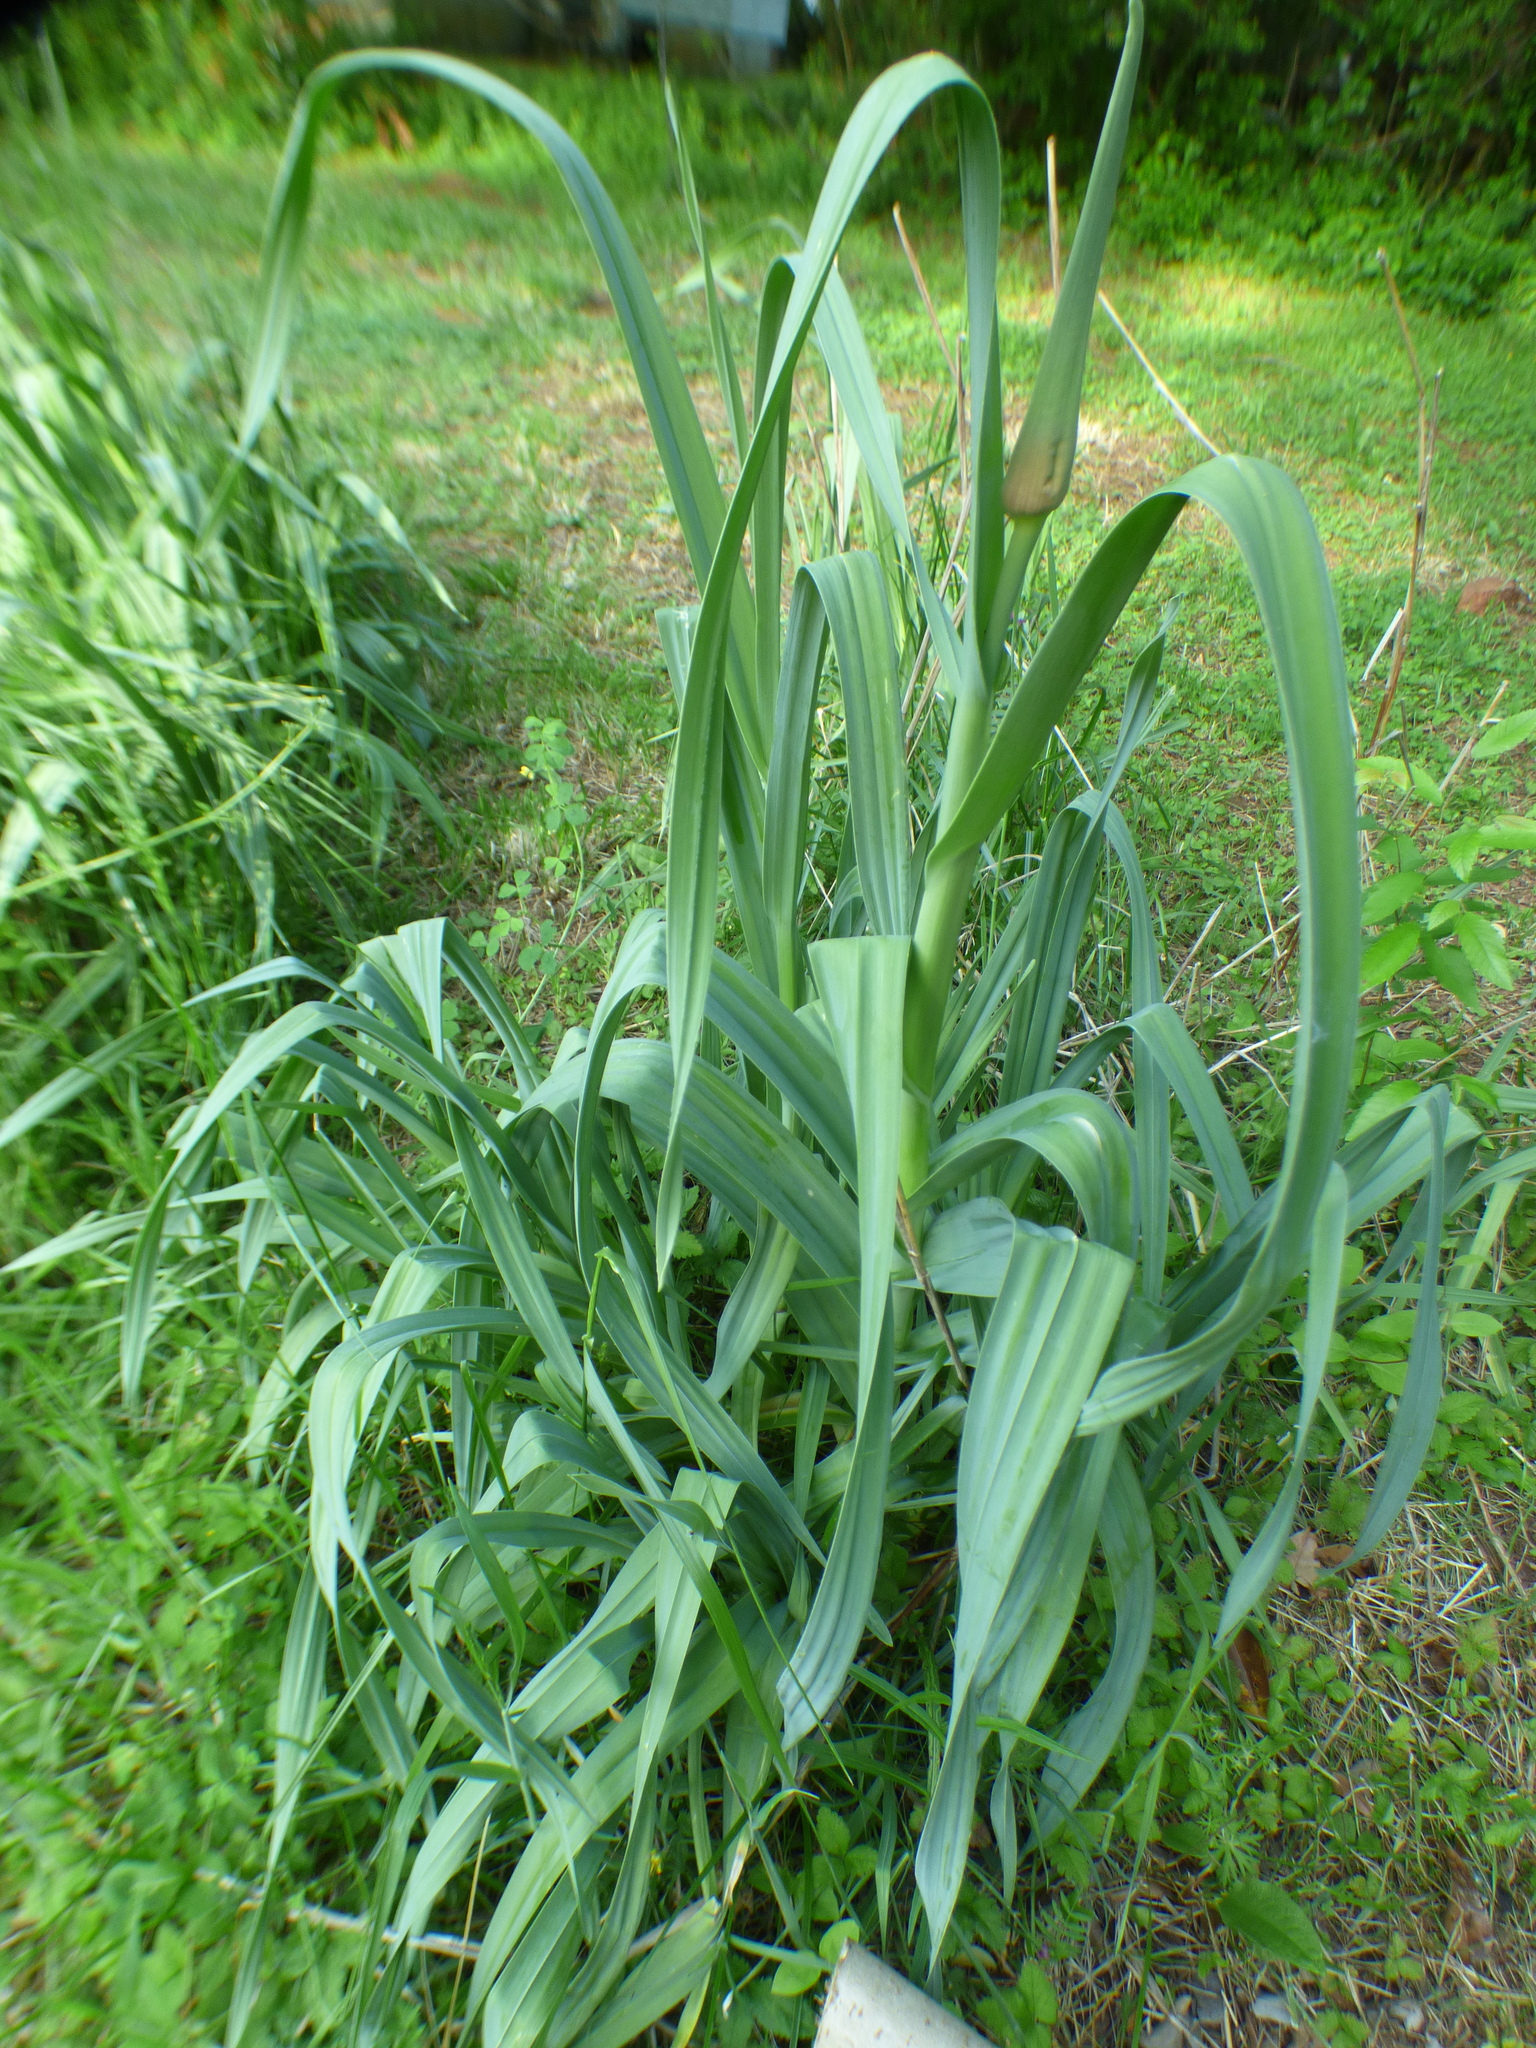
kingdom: Plantae
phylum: Tracheophyta
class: Liliopsida
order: Asparagales
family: Amaryllidaceae
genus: Allium
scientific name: Allium ampeloprasum
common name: Wild leek
